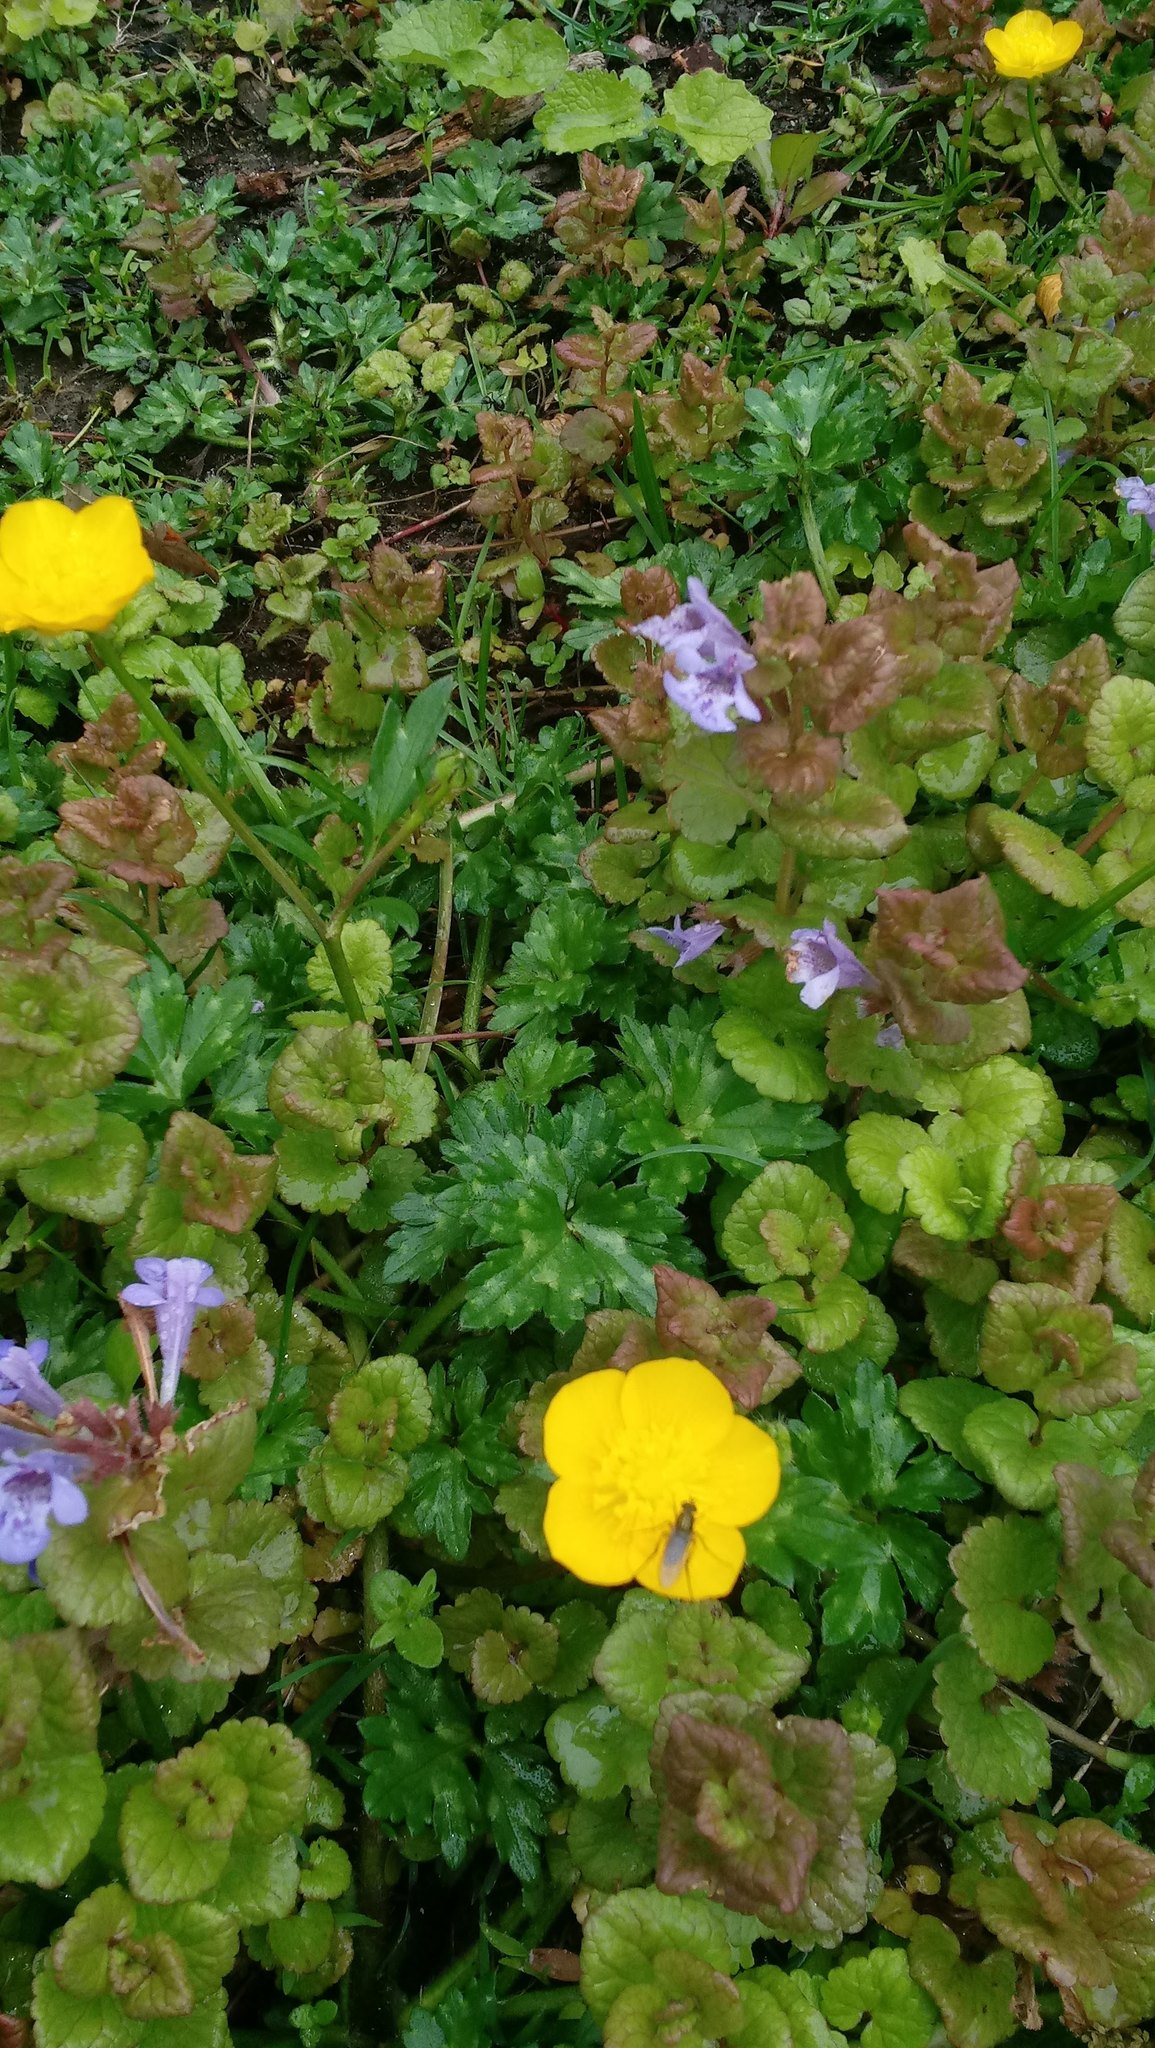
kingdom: Plantae
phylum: Tracheophyta
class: Magnoliopsida
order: Ranunculales
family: Ranunculaceae
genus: Ranunculus
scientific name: Ranunculus repens
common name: Creeping buttercup
